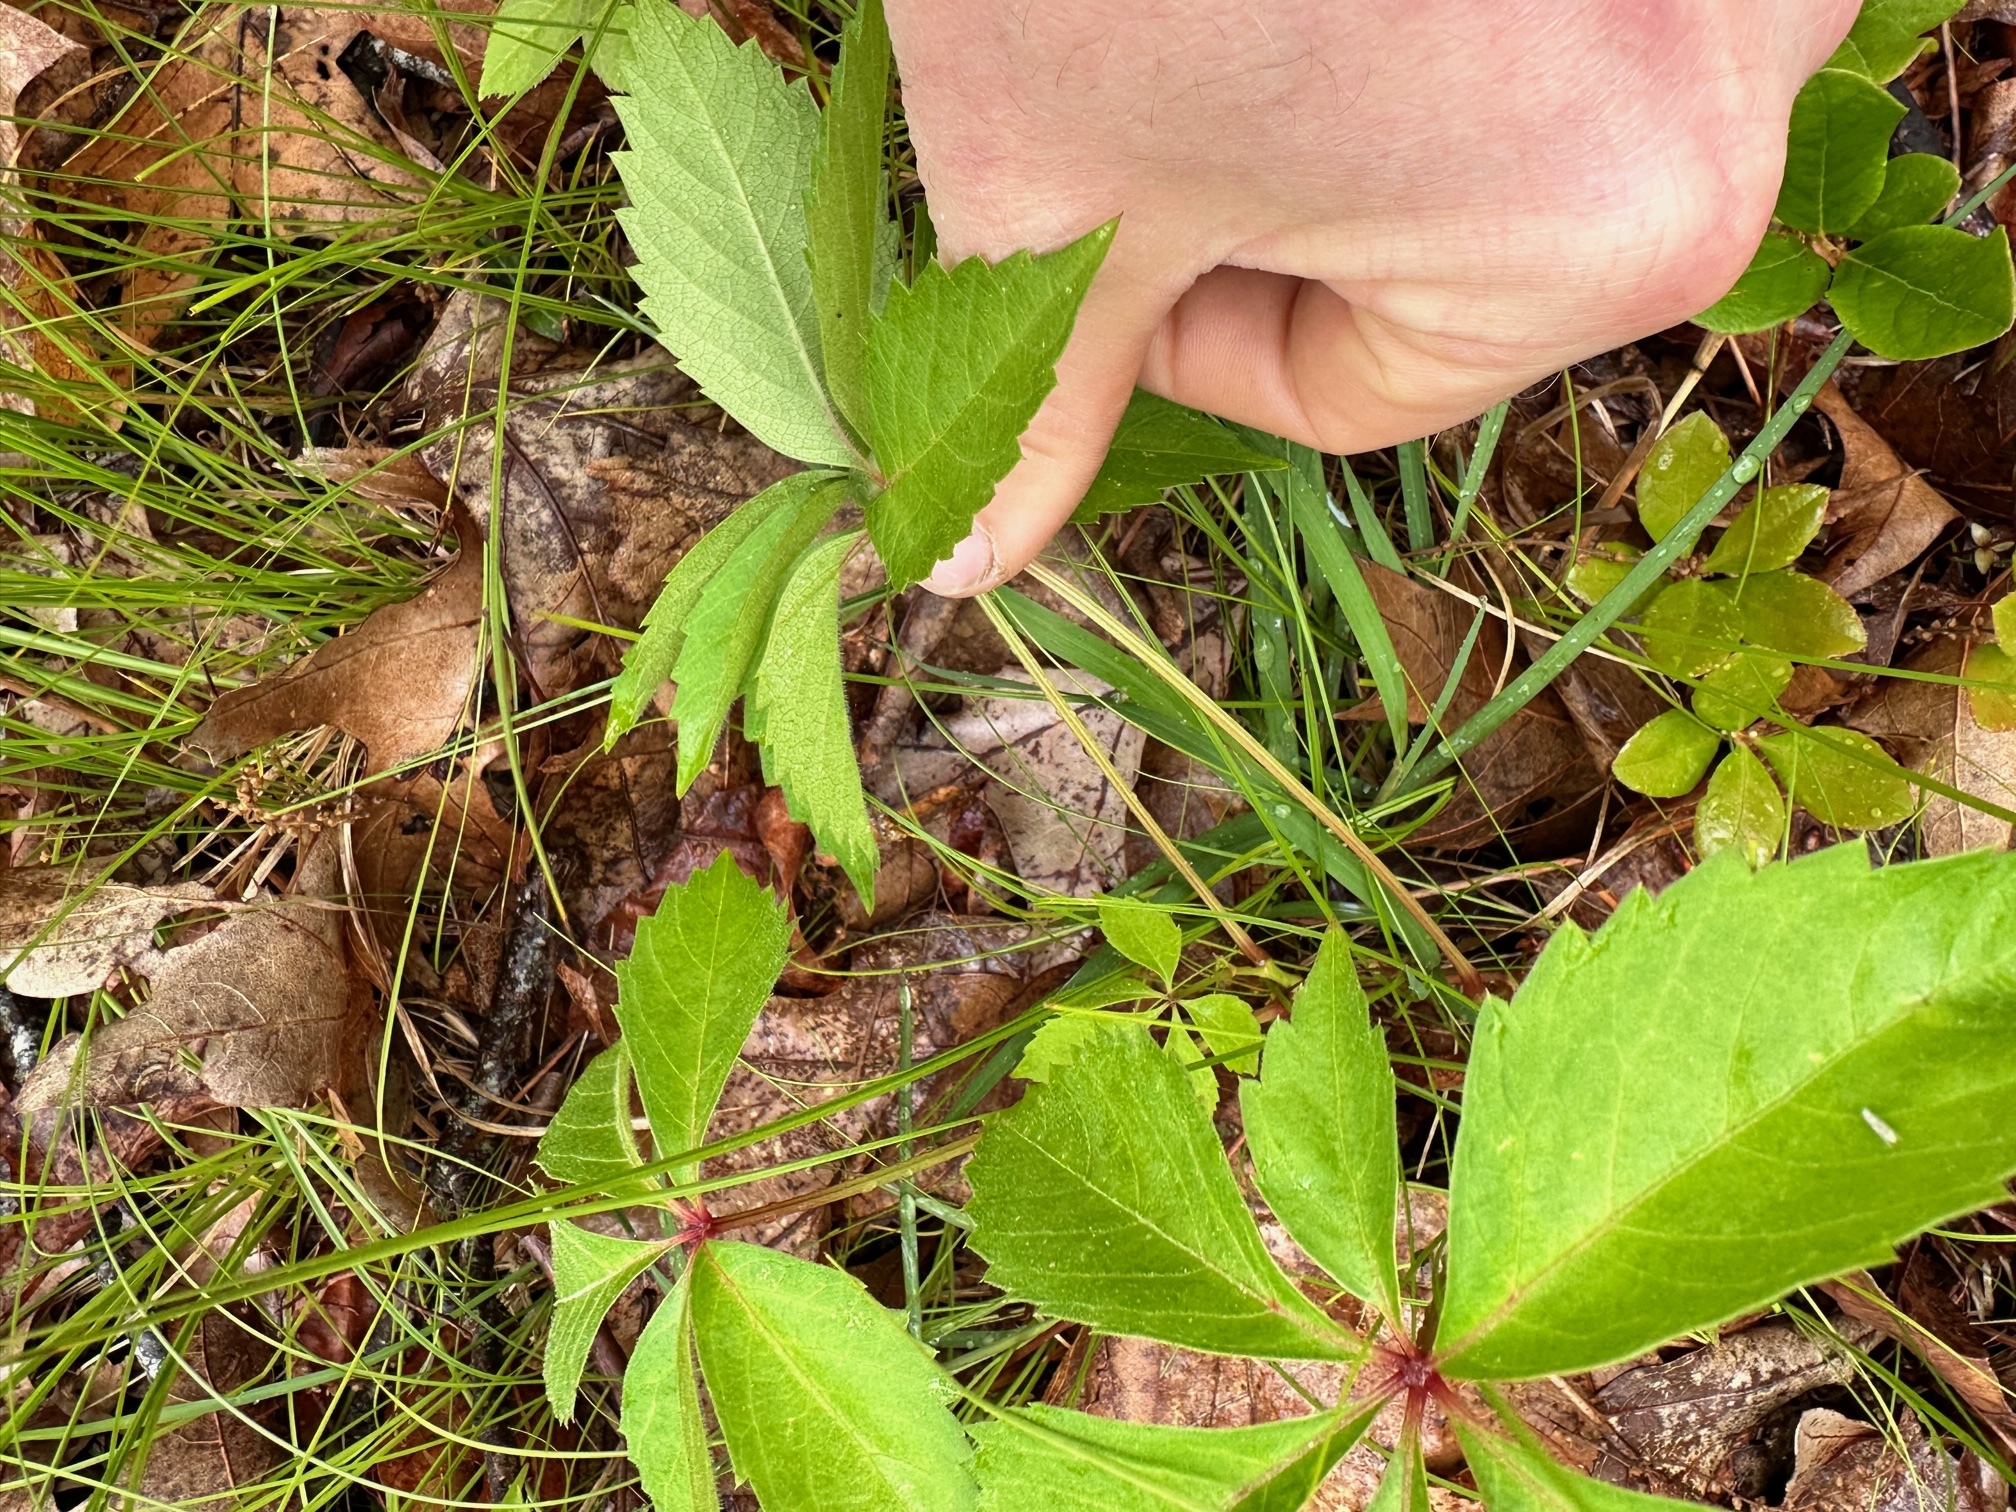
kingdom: Plantae
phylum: Tracheophyta
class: Magnoliopsida
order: Vitales
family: Vitaceae
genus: Parthenocissus
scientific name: Parthenocissus quinquefolia
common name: Virginia-creeper
